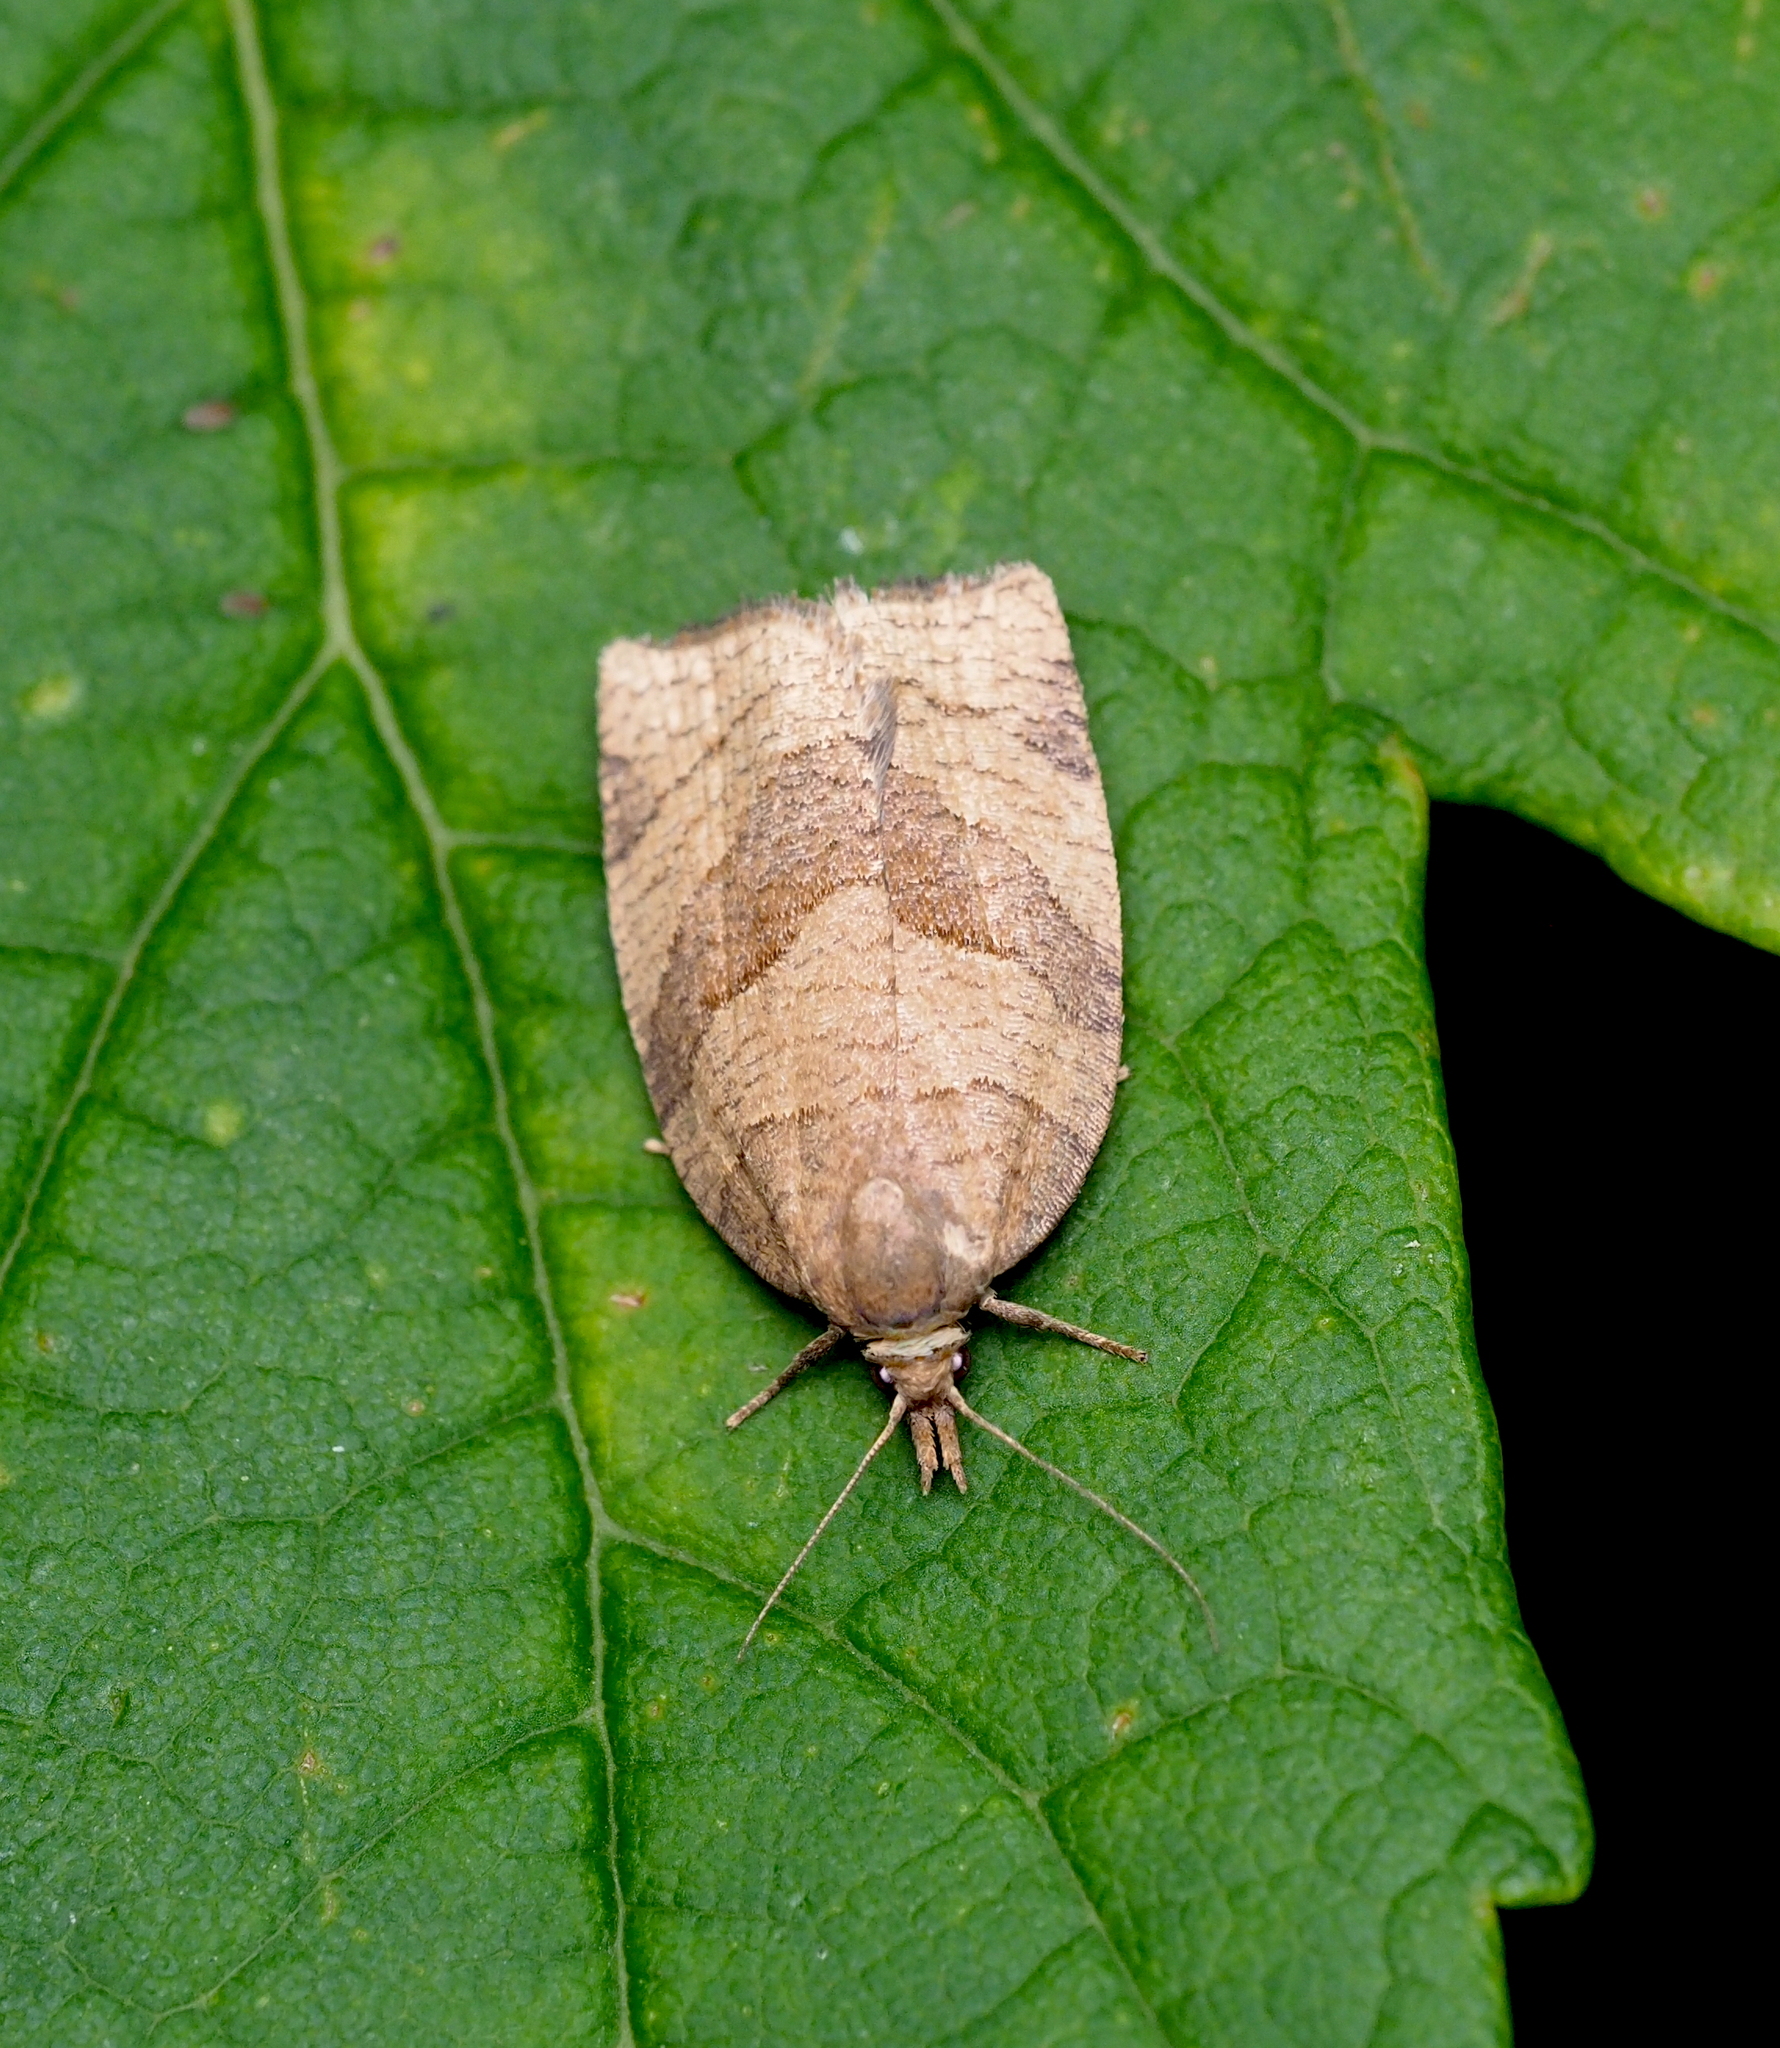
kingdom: Animalia
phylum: Arthropoda
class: Insecta
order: Lepidoptera
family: Tortricidae
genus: Pandemis
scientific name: Pandemis dumetana
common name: Thicket twist
